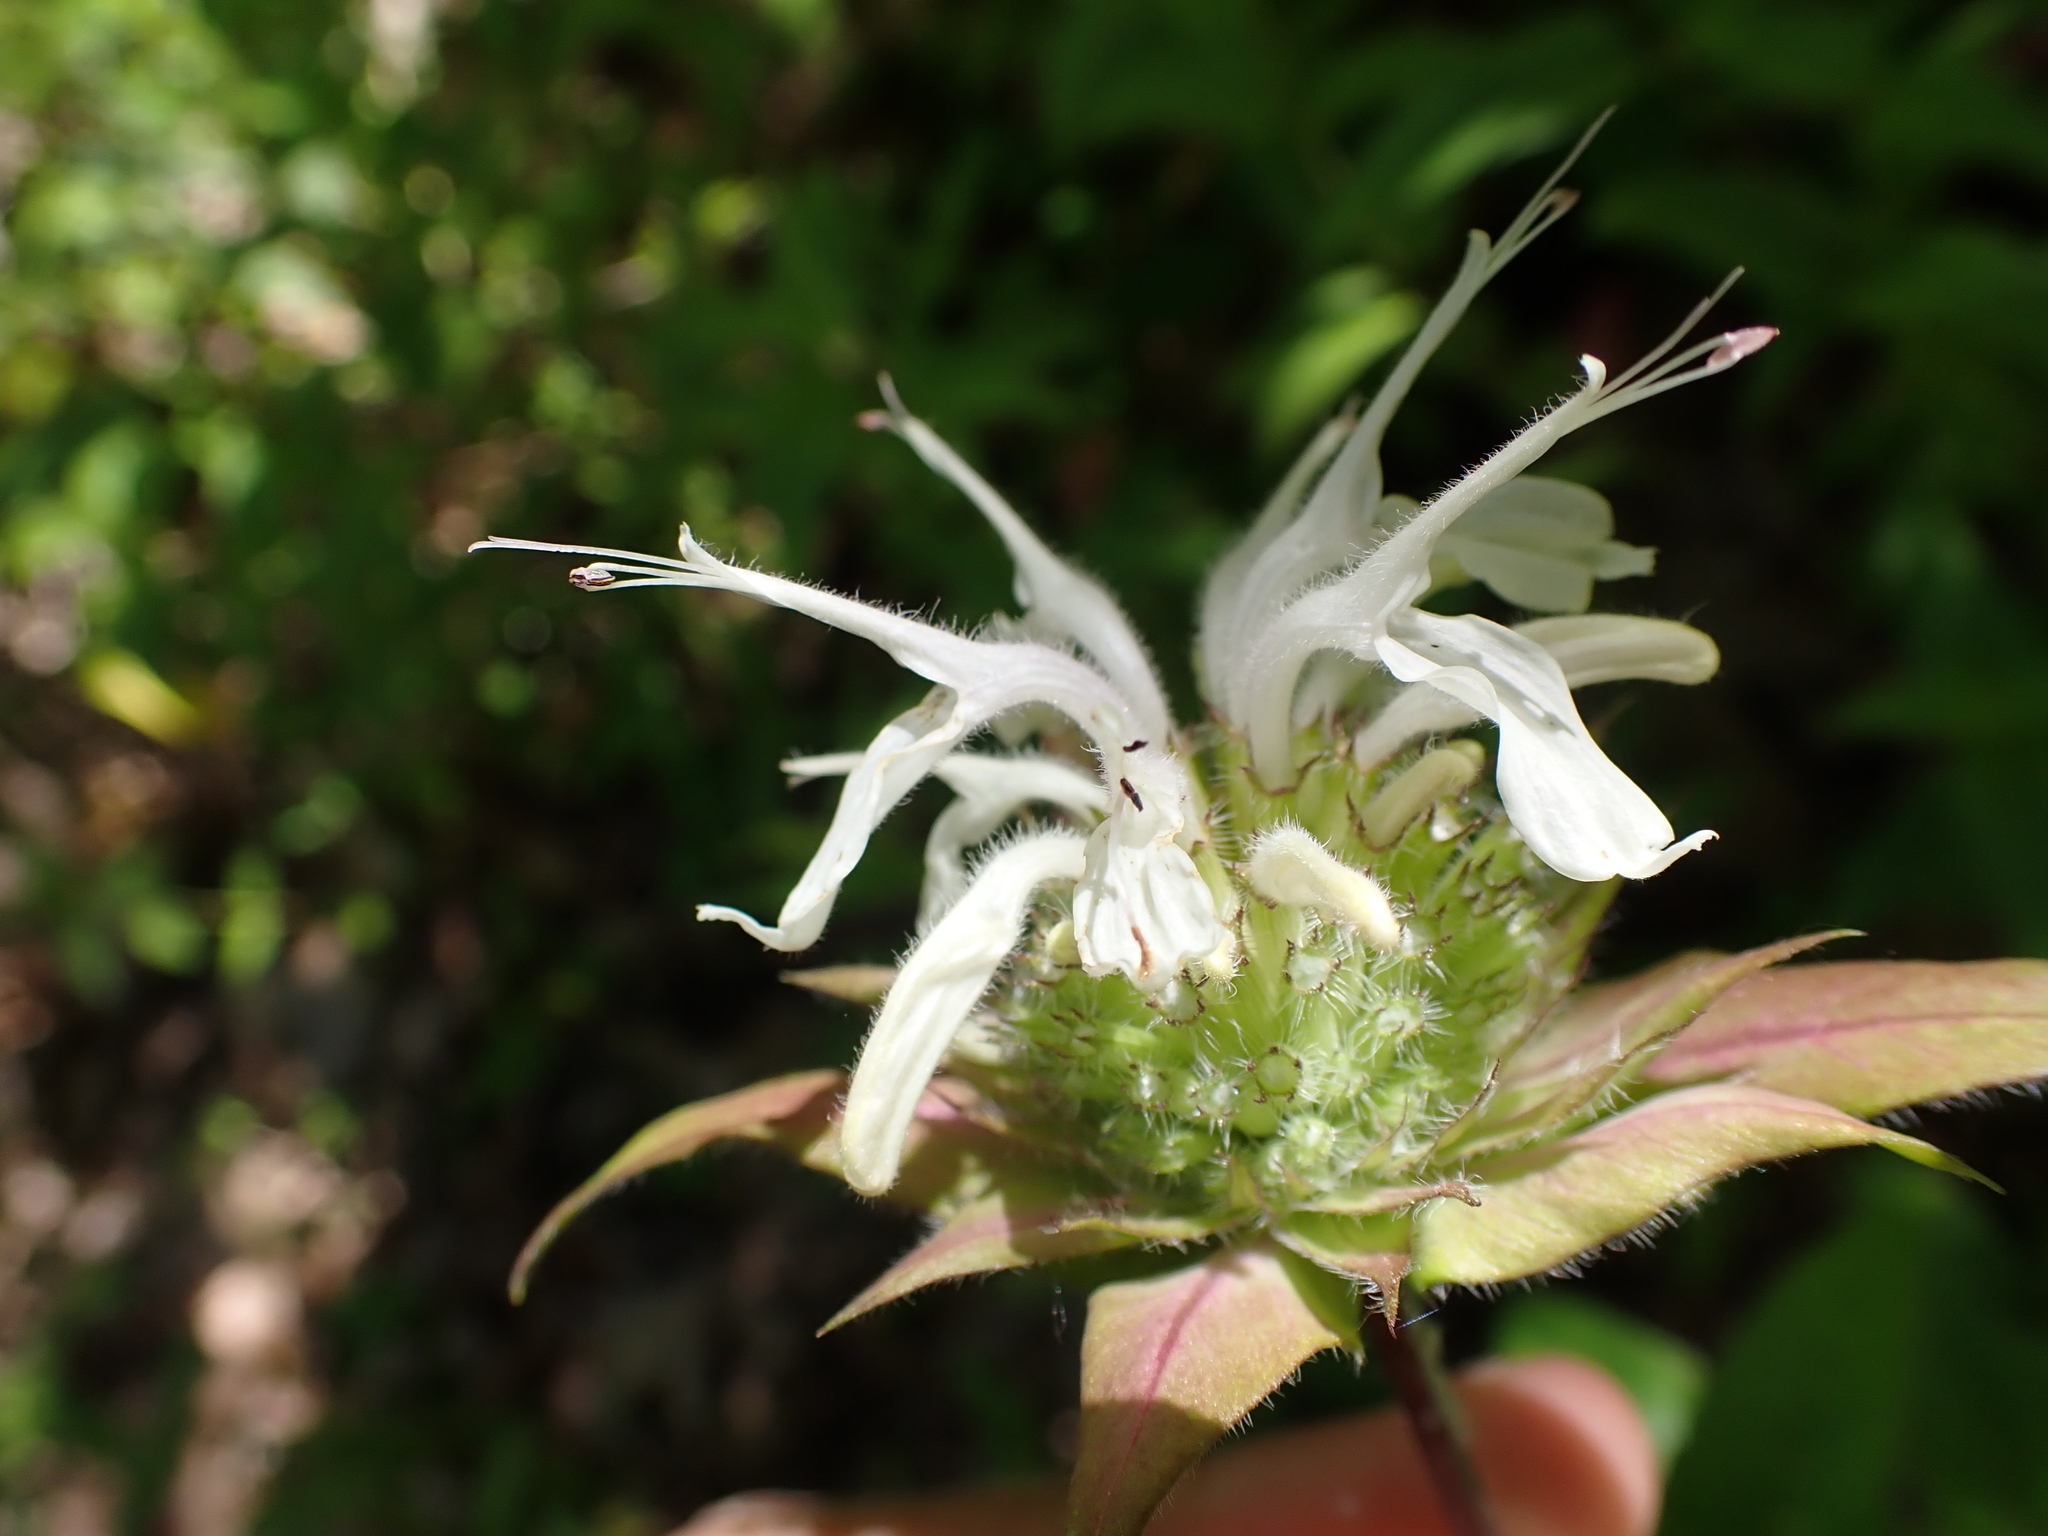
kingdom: Plantae
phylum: Tracheophyta
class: Magnoliopsida
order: Lamiales
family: Lamiaceae
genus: Monarda
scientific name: Monarda clinopodia
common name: Basil beebalm
